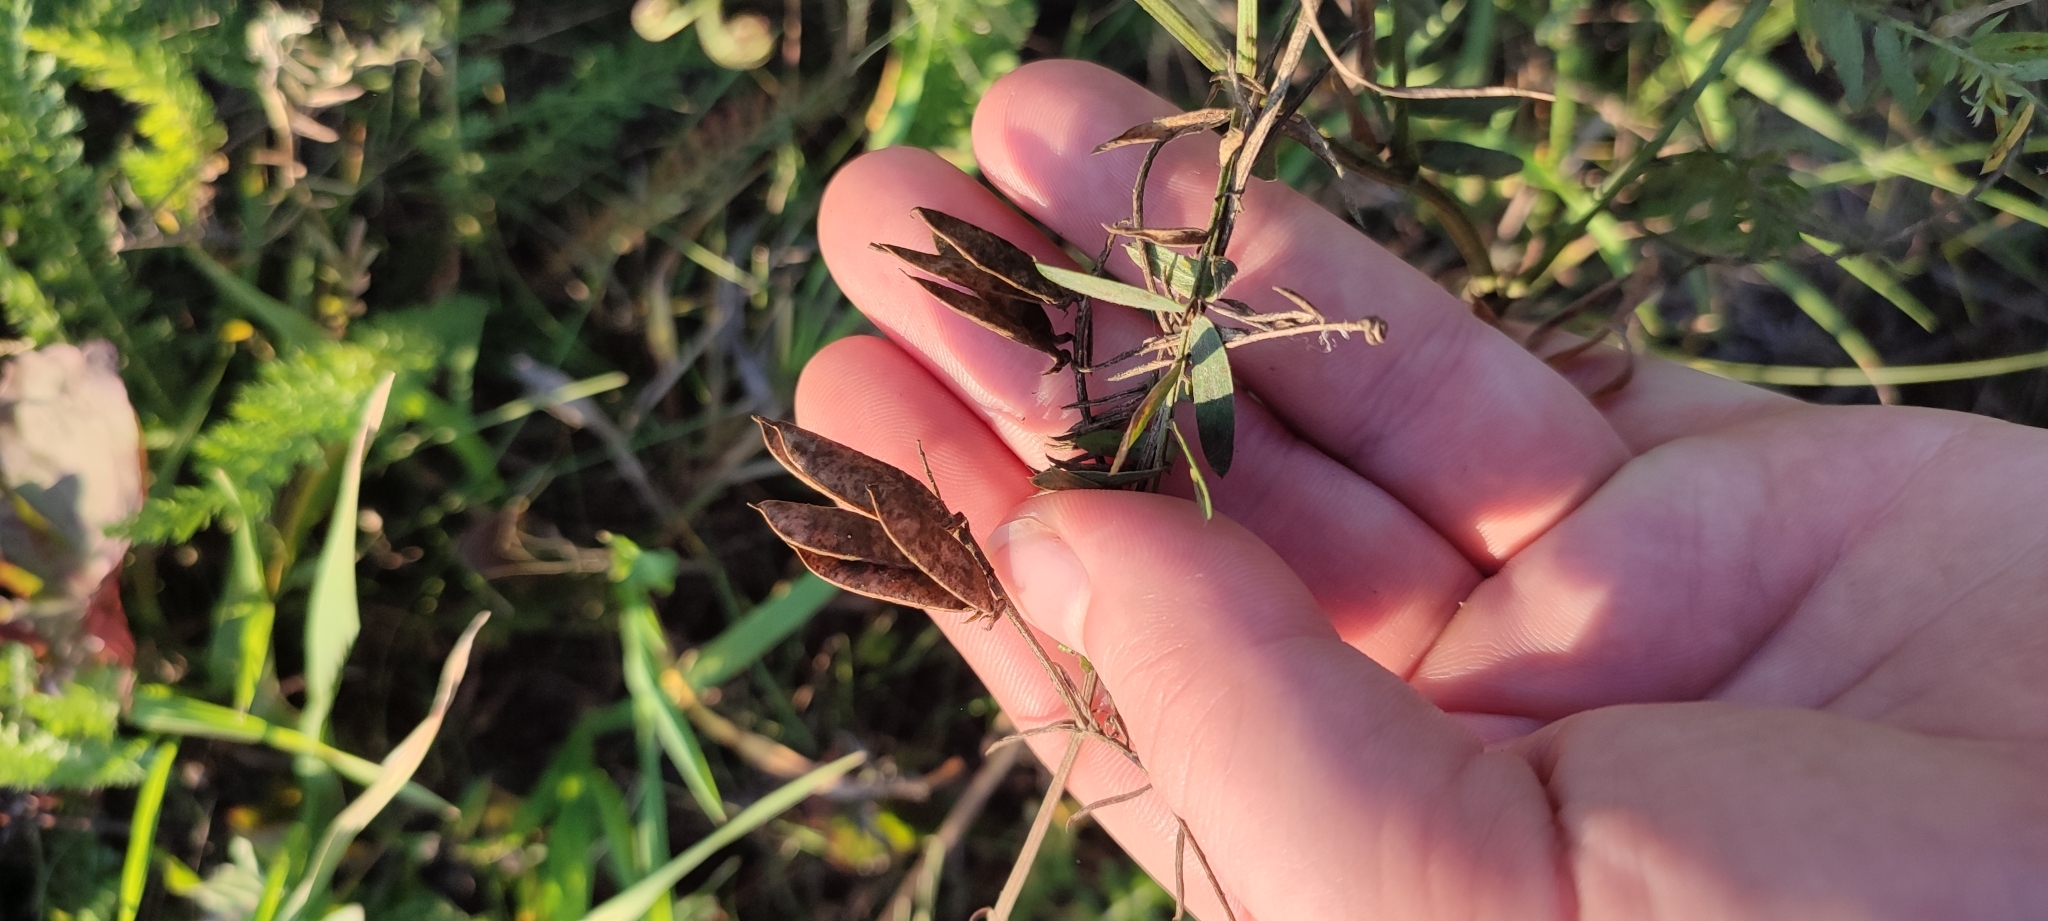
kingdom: Plantae
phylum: Tracheophyta
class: Magnoliopsida
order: Fabales
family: Fabaceae
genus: Vicia
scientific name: Vicia cracca
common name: Bird vetch
